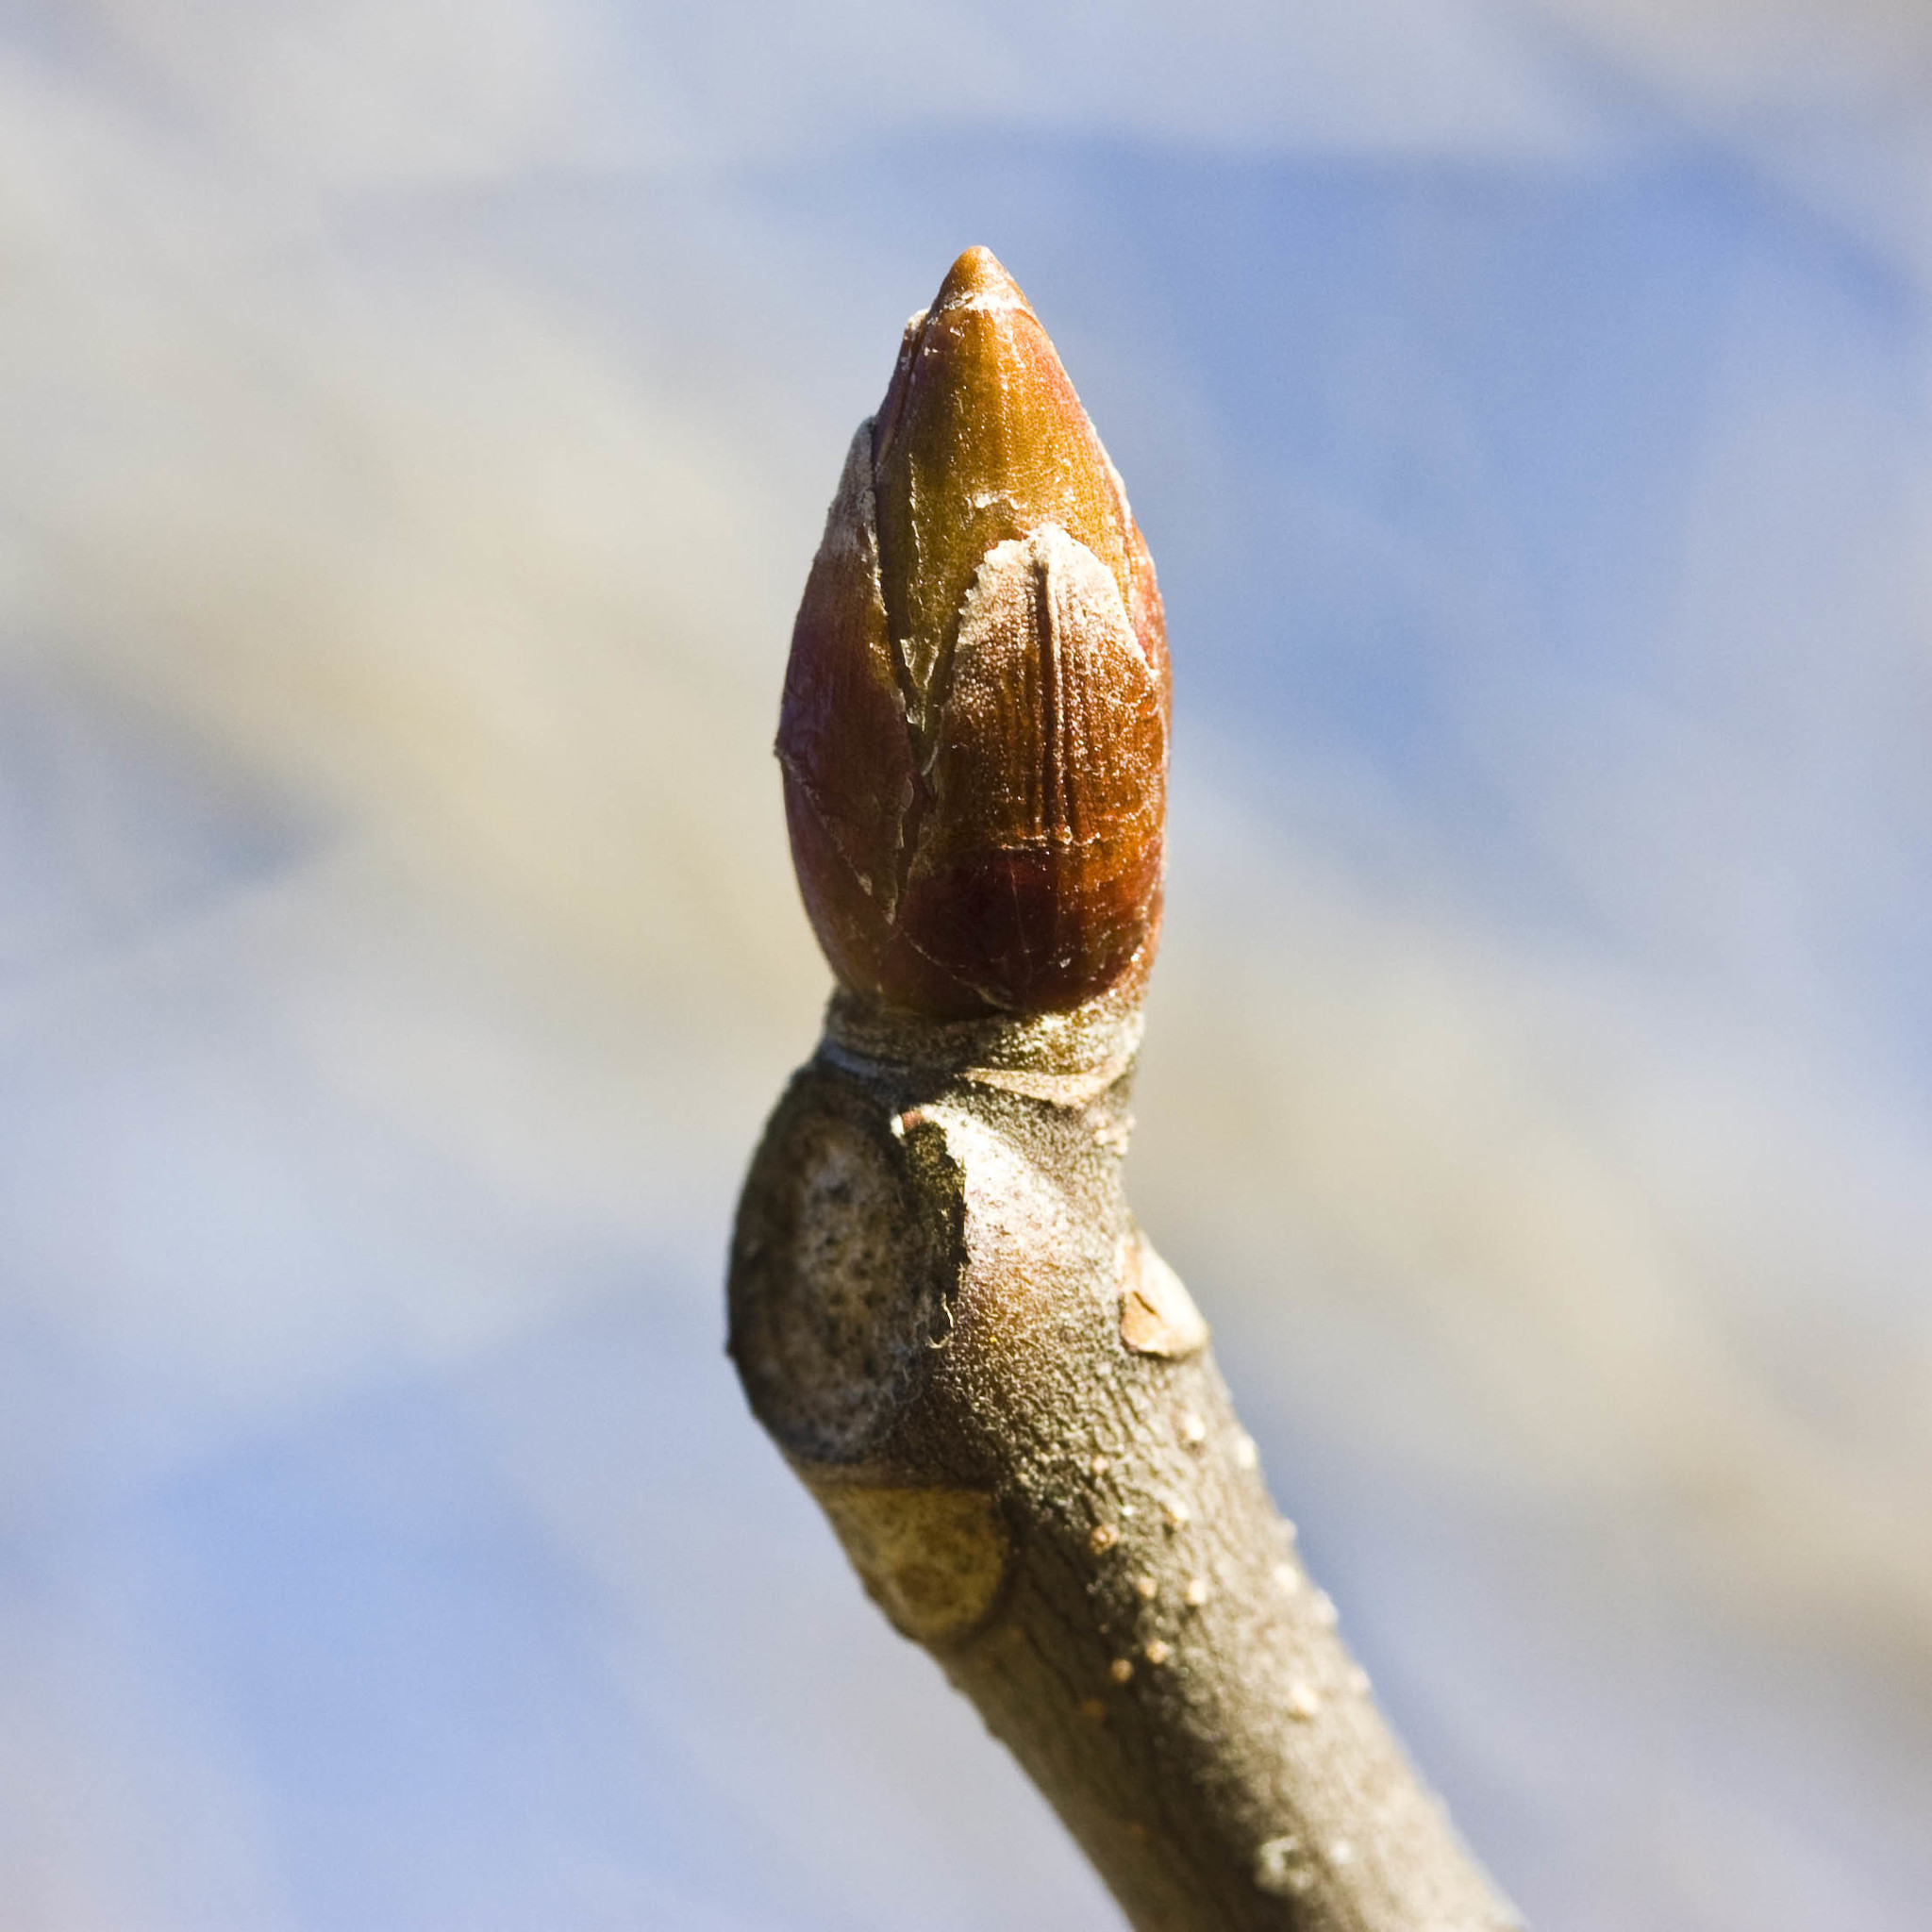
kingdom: Plantae
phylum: Tracheophyta
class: Magnoliopsida
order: Sapindales
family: Sapindaceae
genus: Aesculus
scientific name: Aesculus californica
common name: California buckeye
